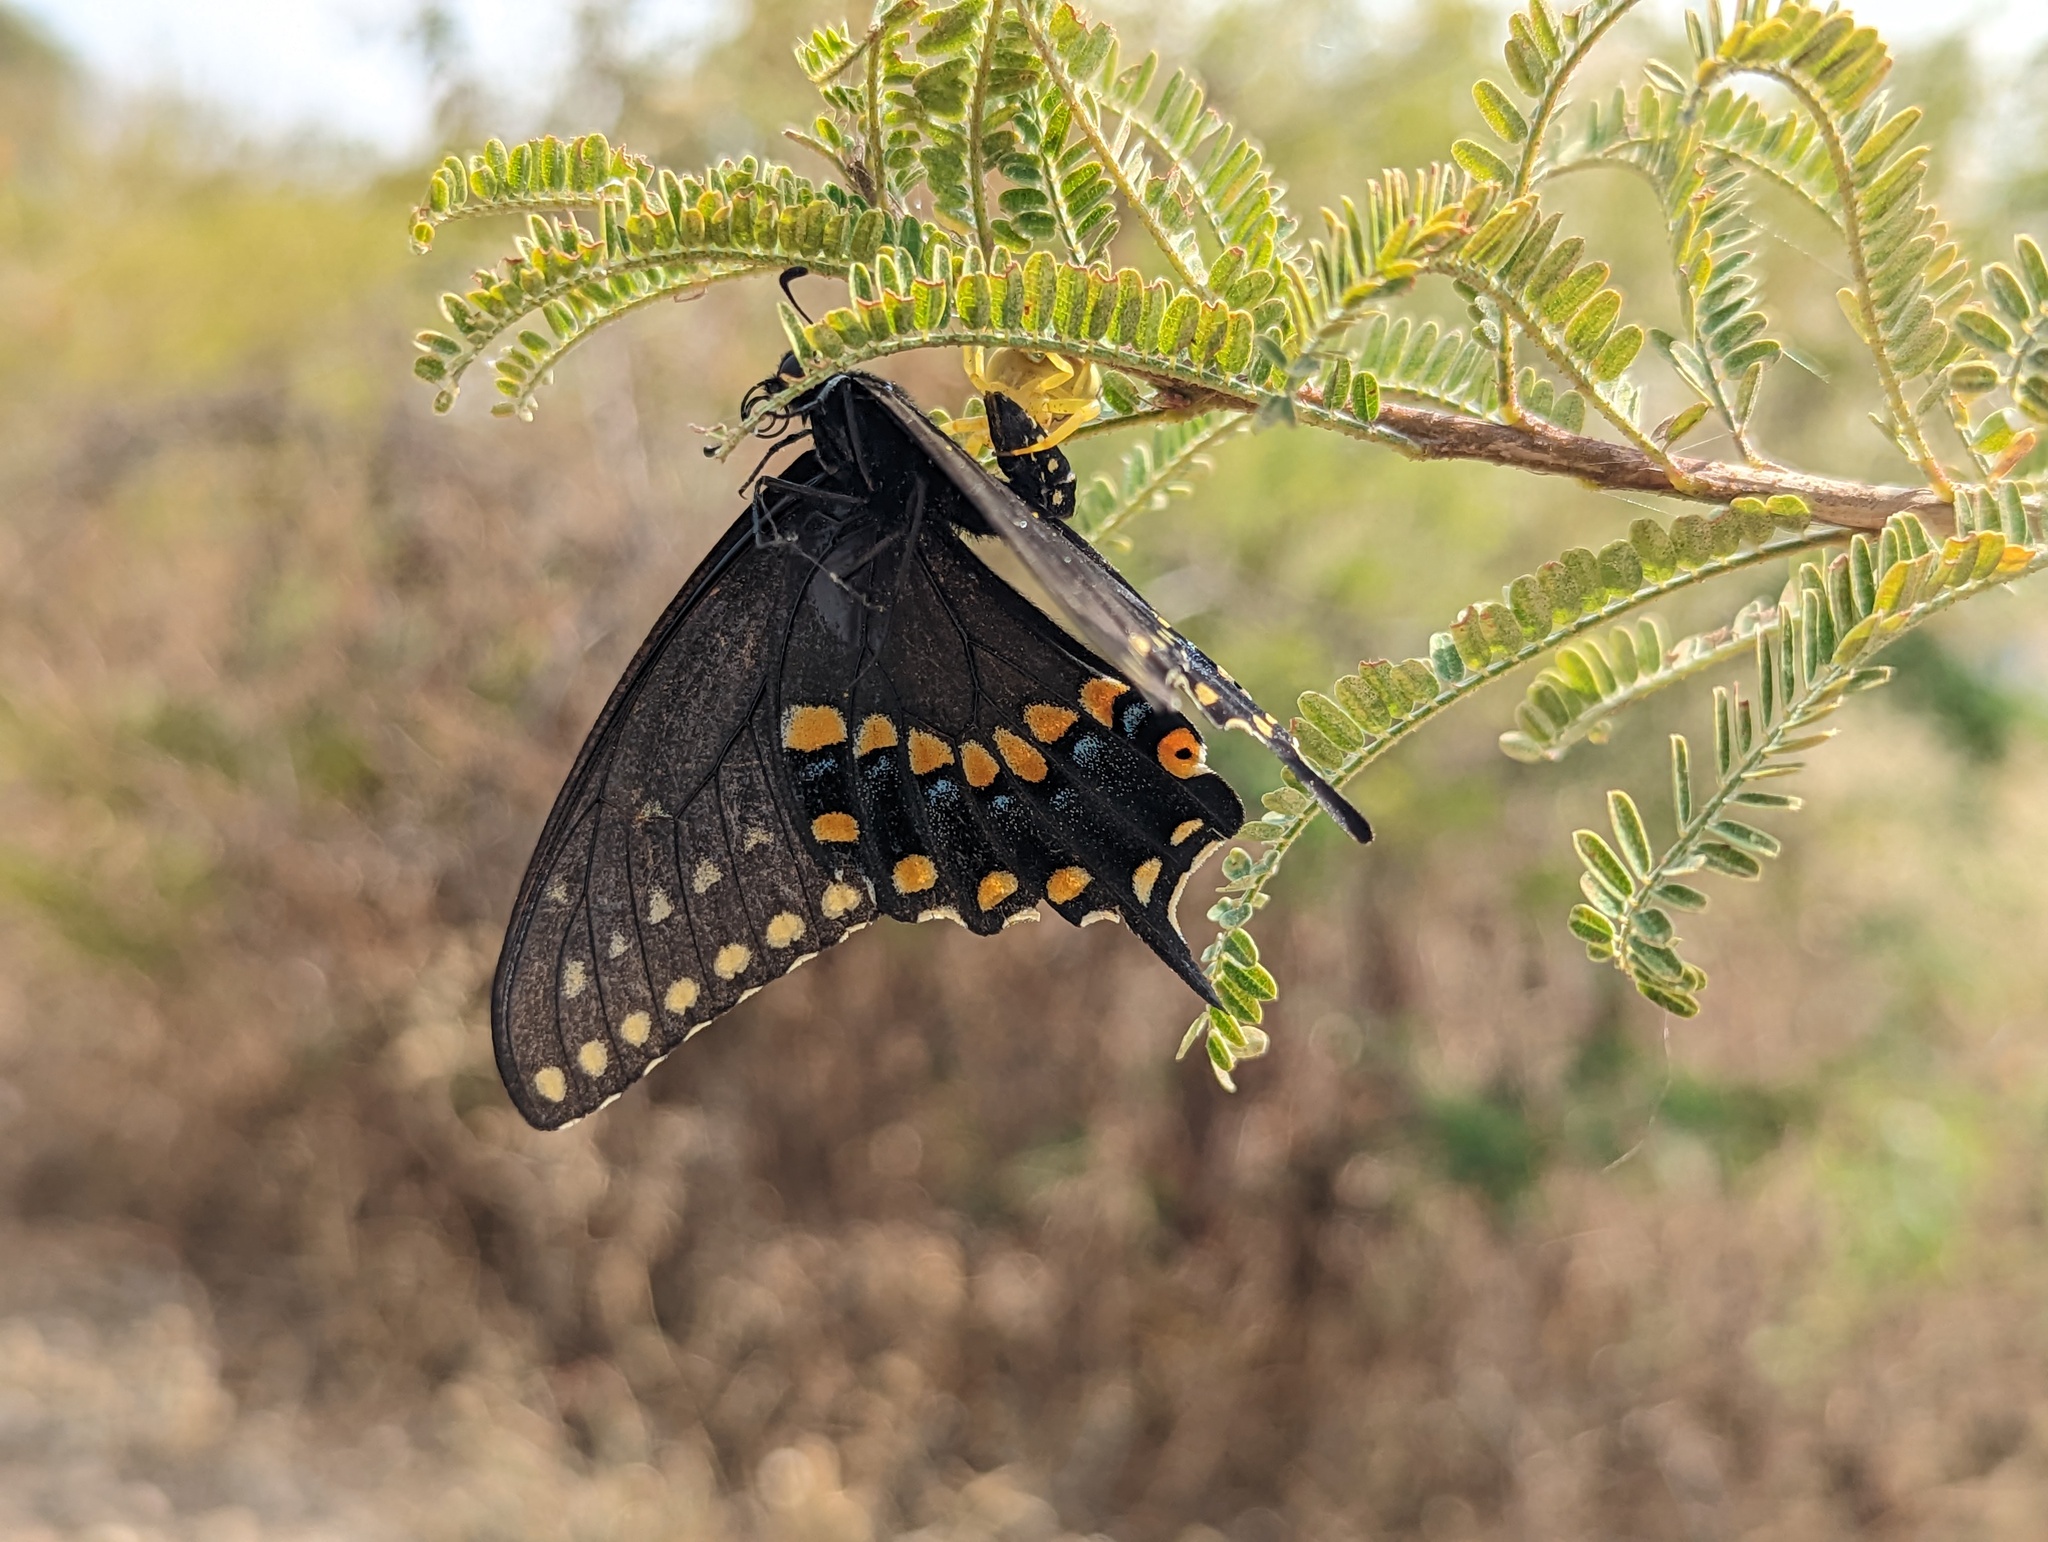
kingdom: Animalia
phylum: Arthropoda
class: Insecta
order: Lepidoptera
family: Papilionidae
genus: Papilio
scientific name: Papilio polyxenes
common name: Black swallowtail
